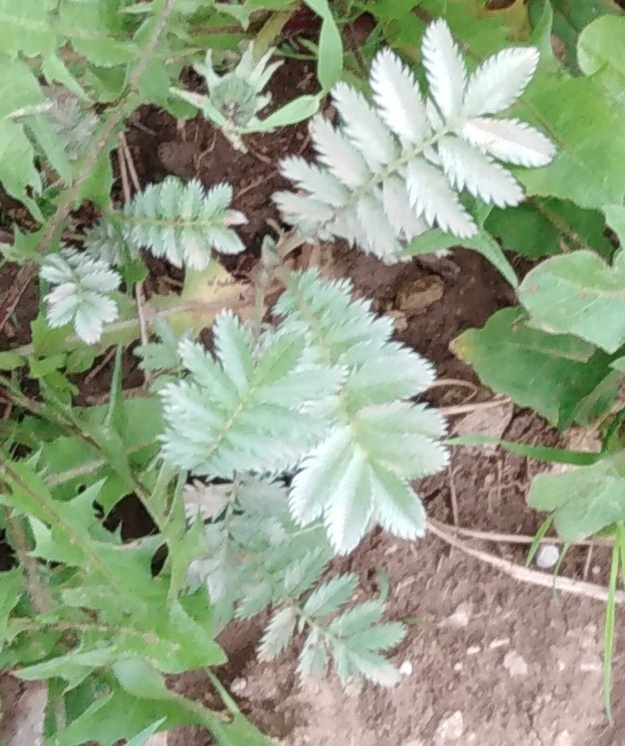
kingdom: Plantae
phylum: Tracheophyta
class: Magnoliopsida
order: Rosales
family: Rosaceae
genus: Argentina
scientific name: Argentina anserina
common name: Common silverweed
